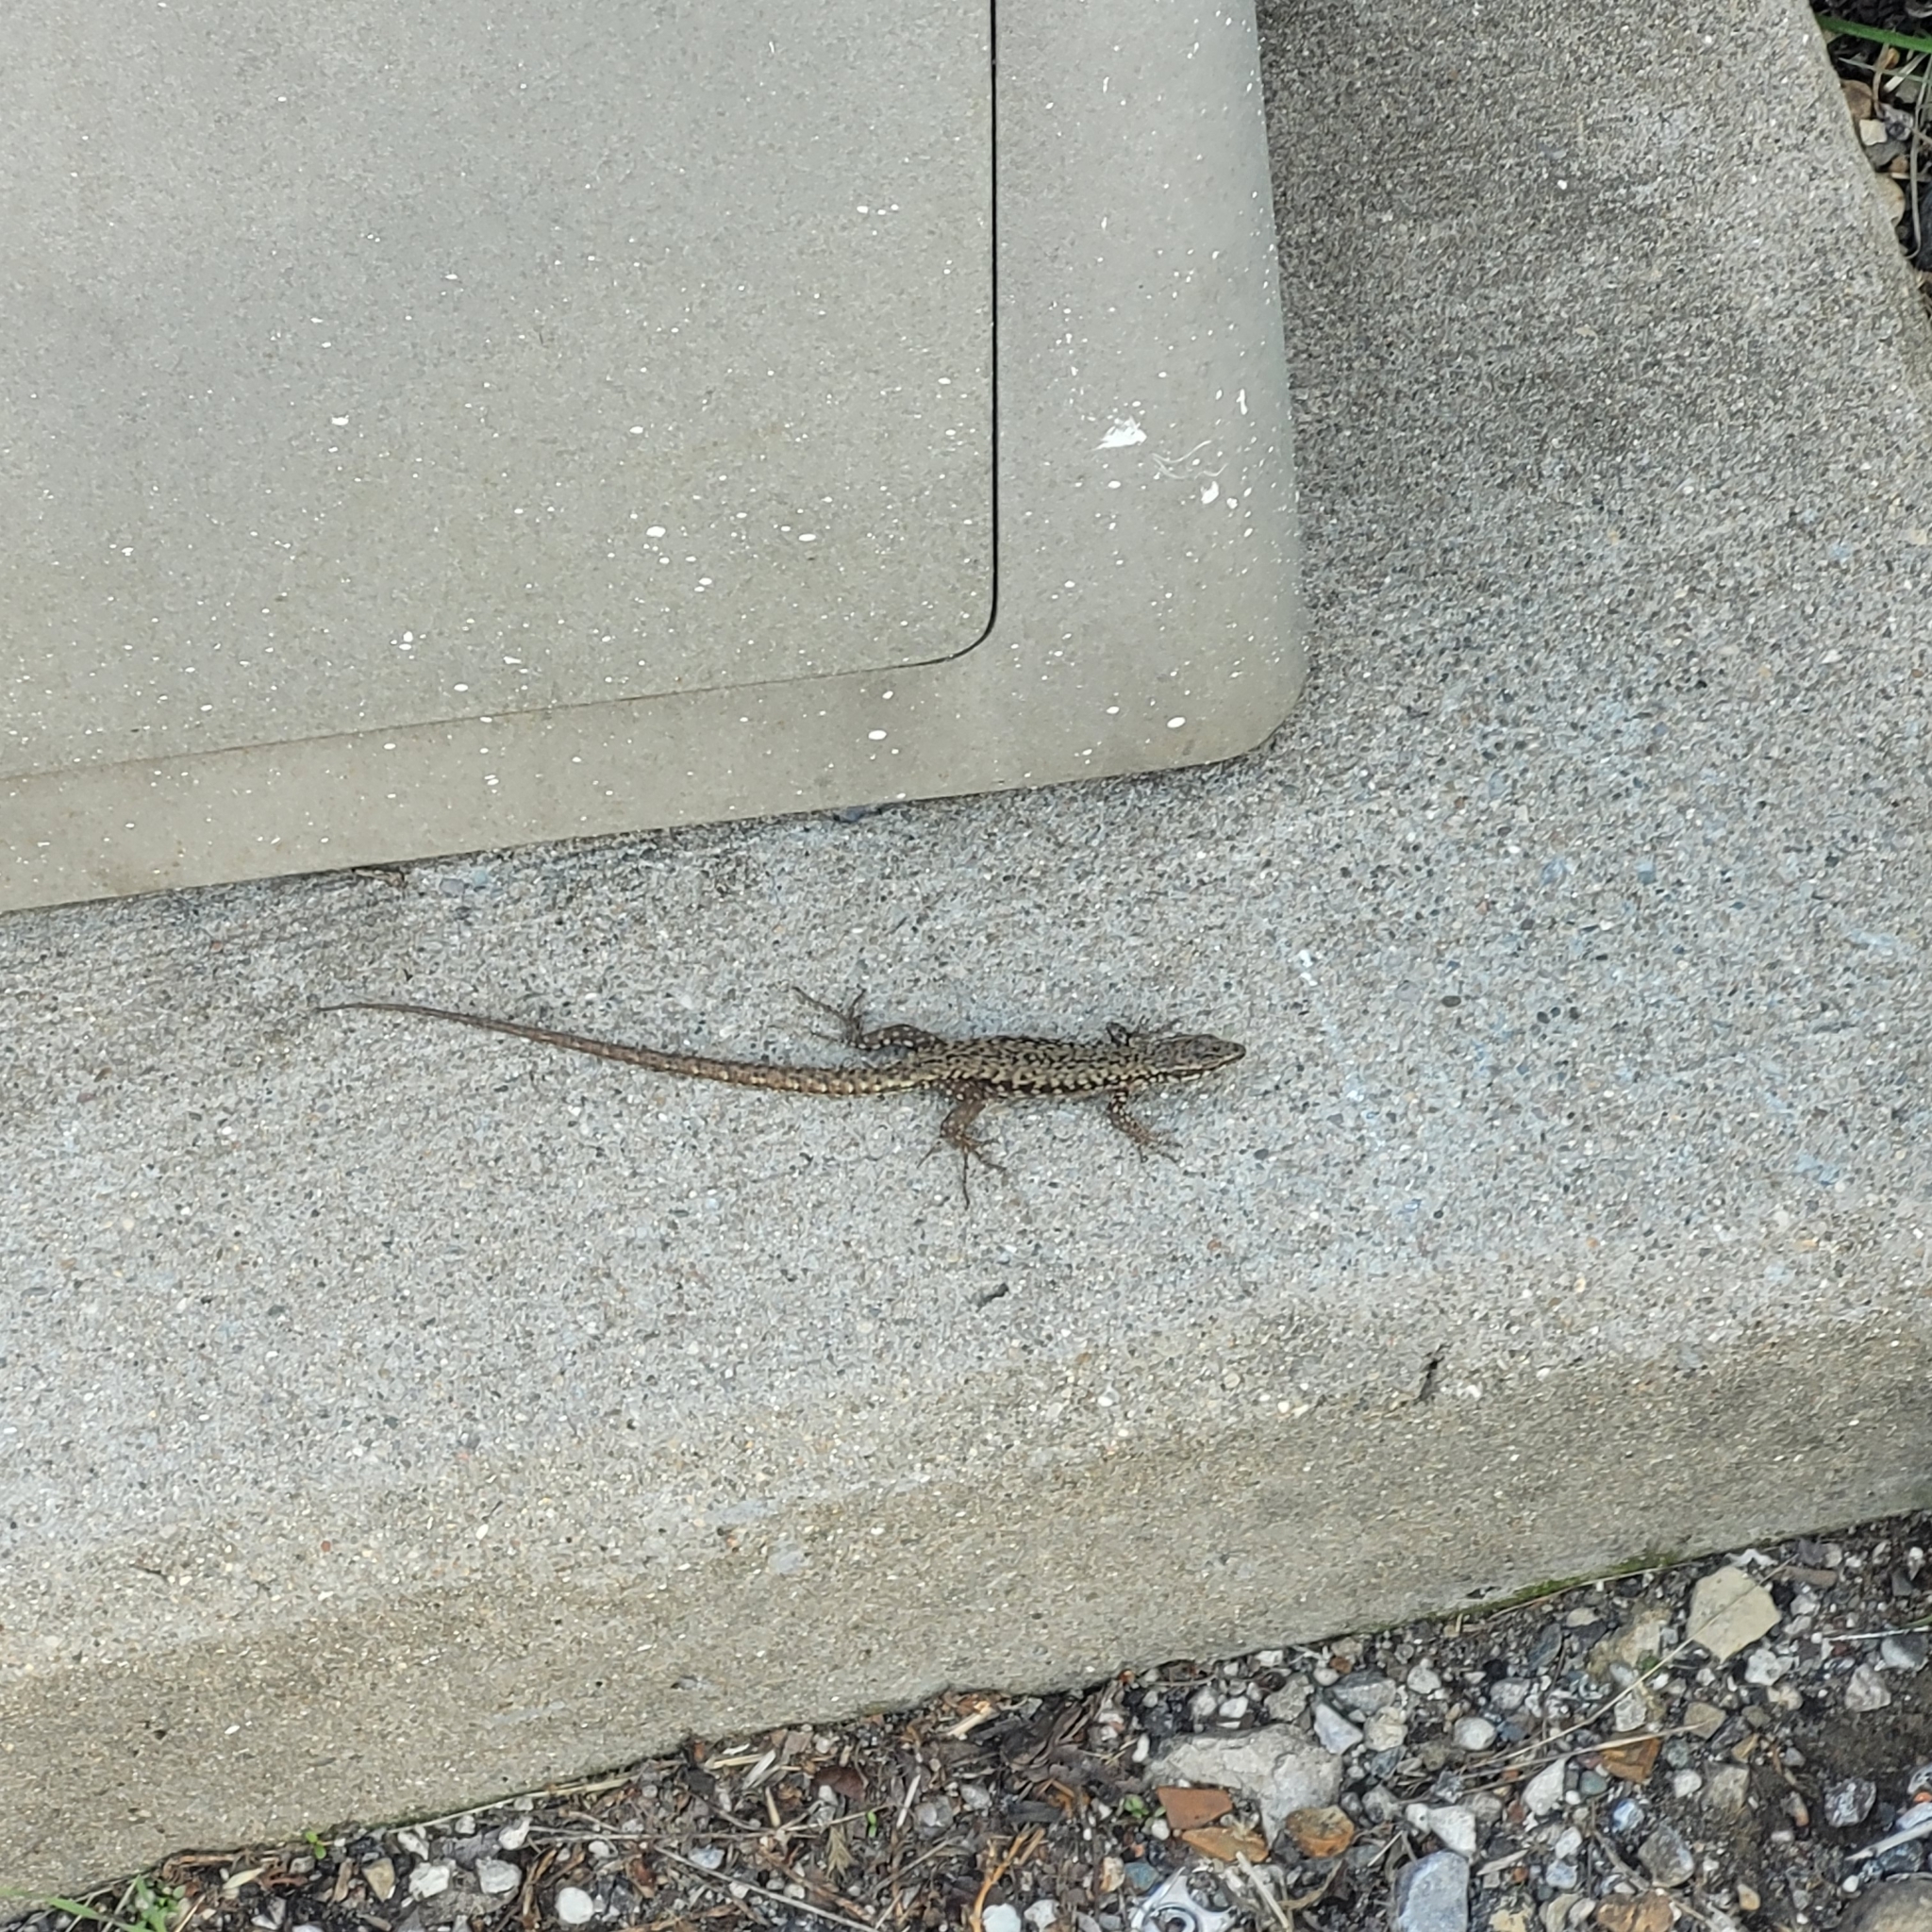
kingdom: Animalia
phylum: Chordata
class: Squamata
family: Lacertidae
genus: Podarcis
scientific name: Podarcis muralis
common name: Common wall lizard
